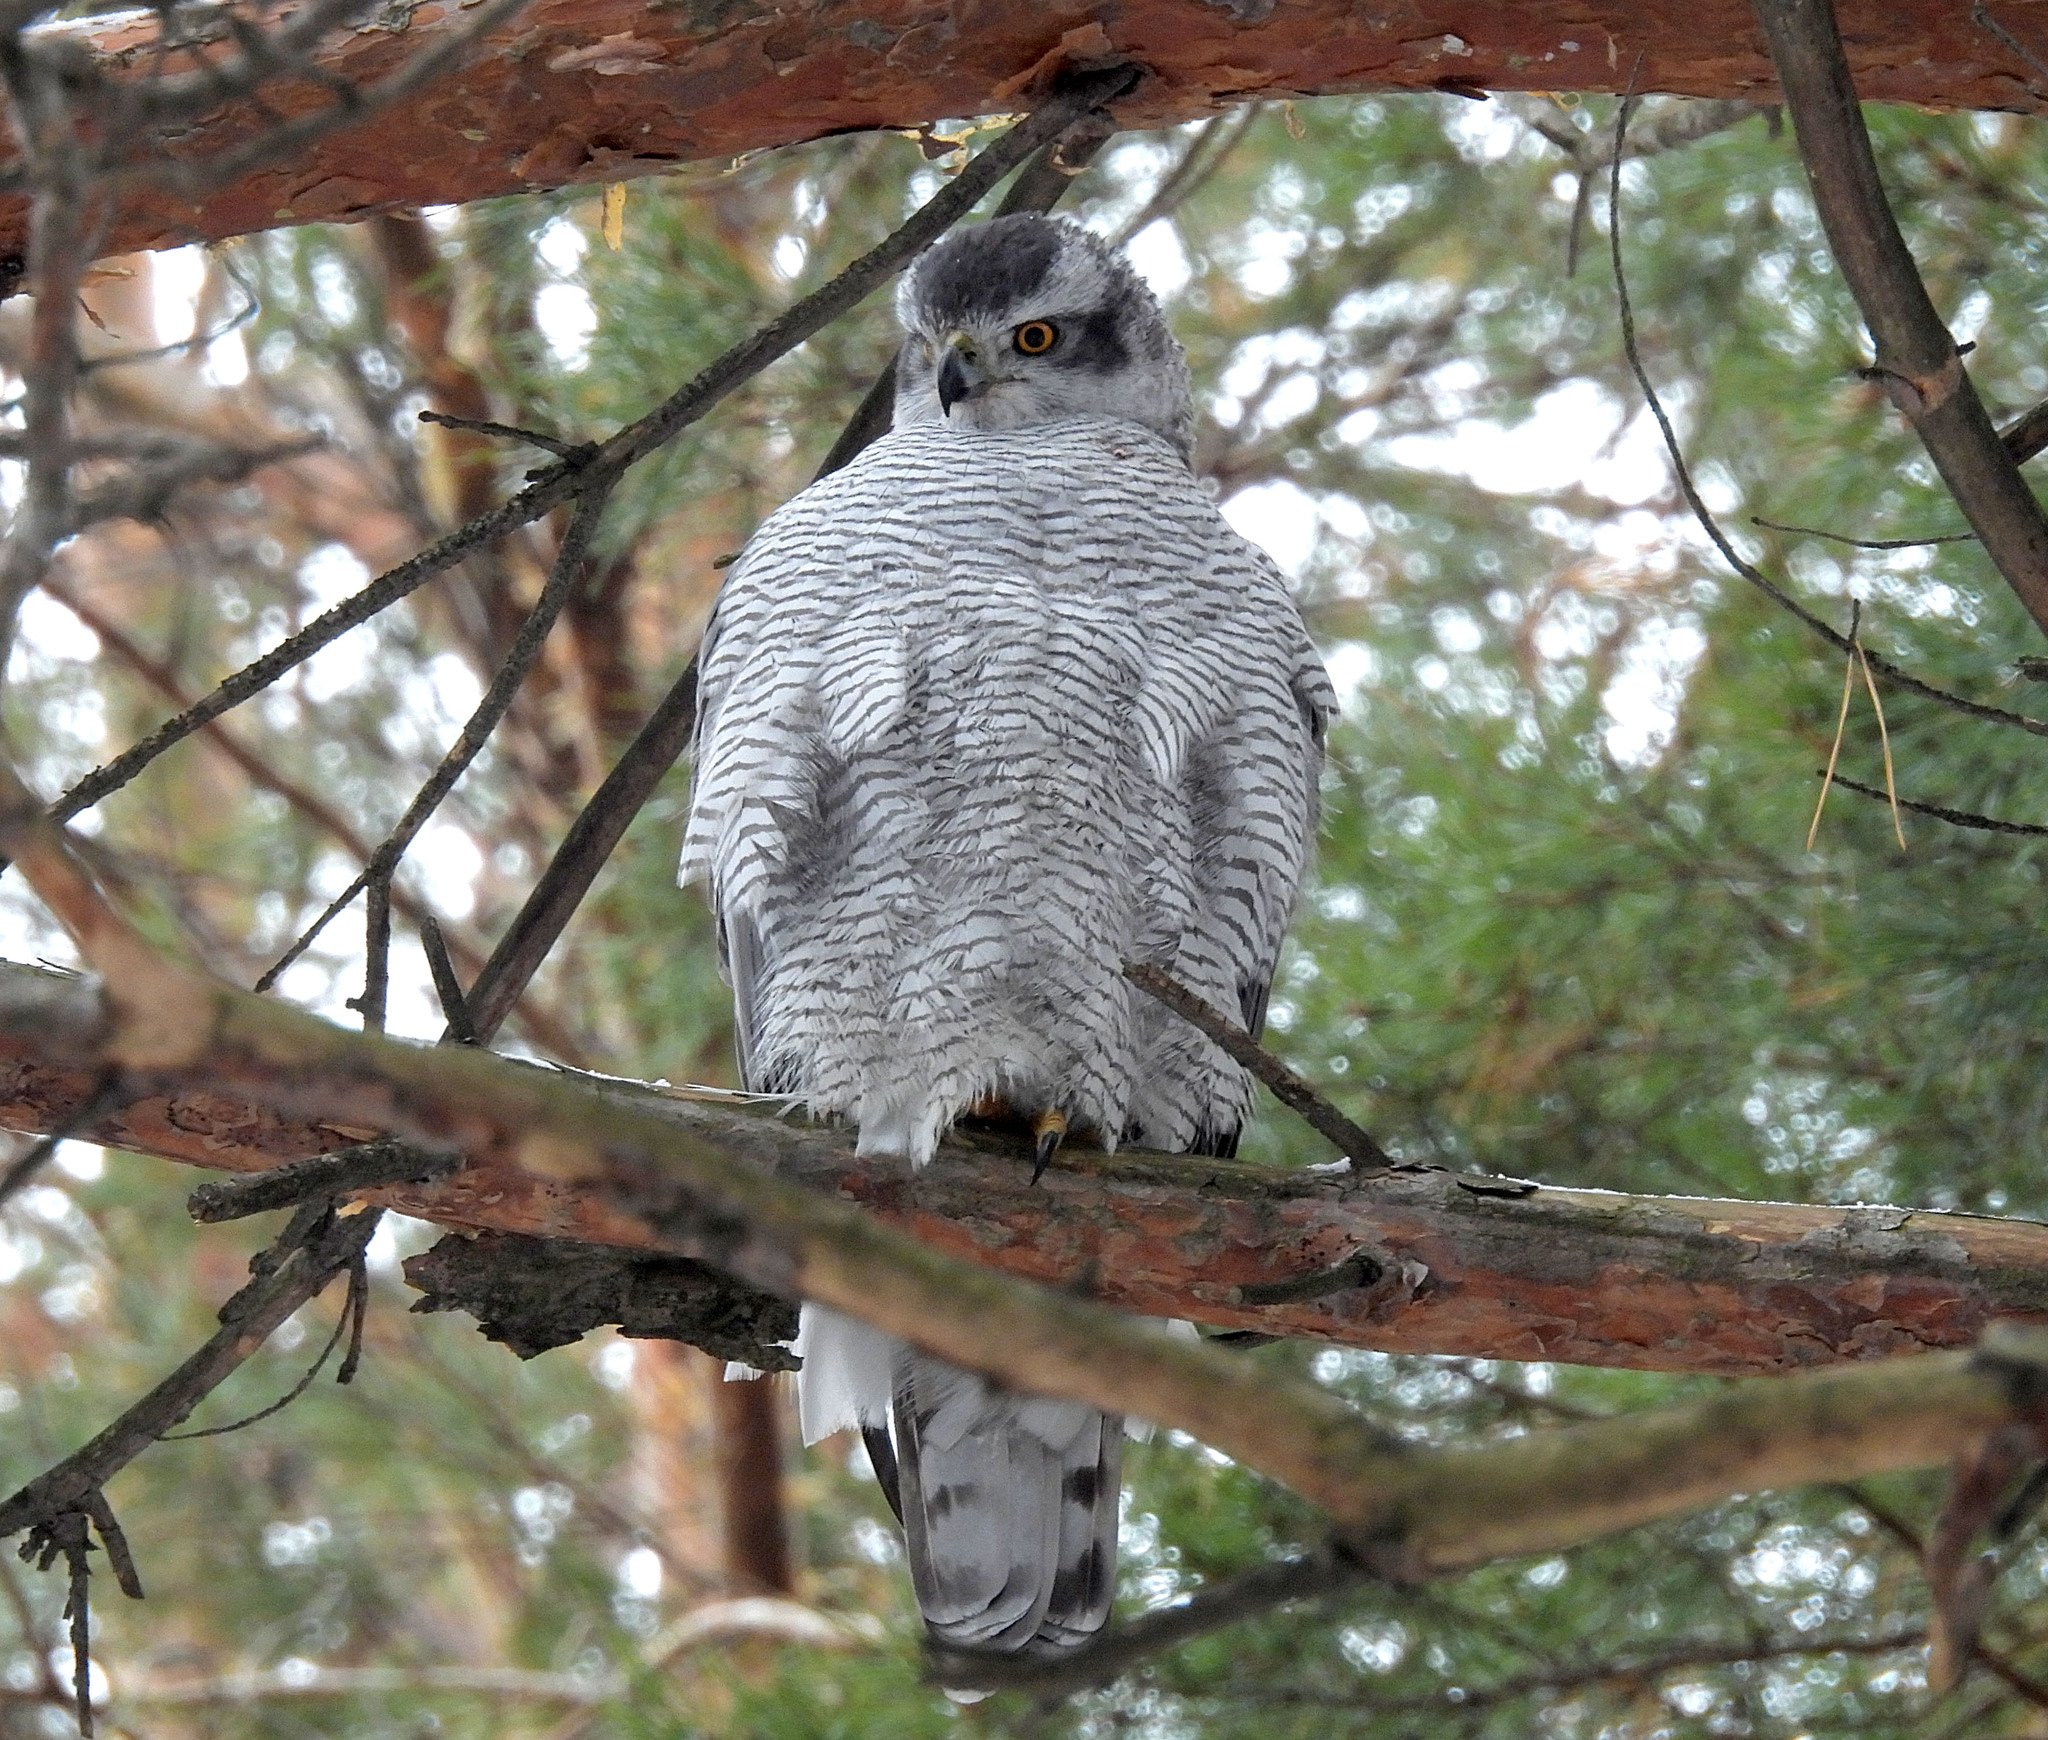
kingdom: Animalia
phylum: Chordata
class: Aves
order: Accipitriformes
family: Accipitridae
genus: Accipiter
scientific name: Accipiter gentilis
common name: Northern goshawk
